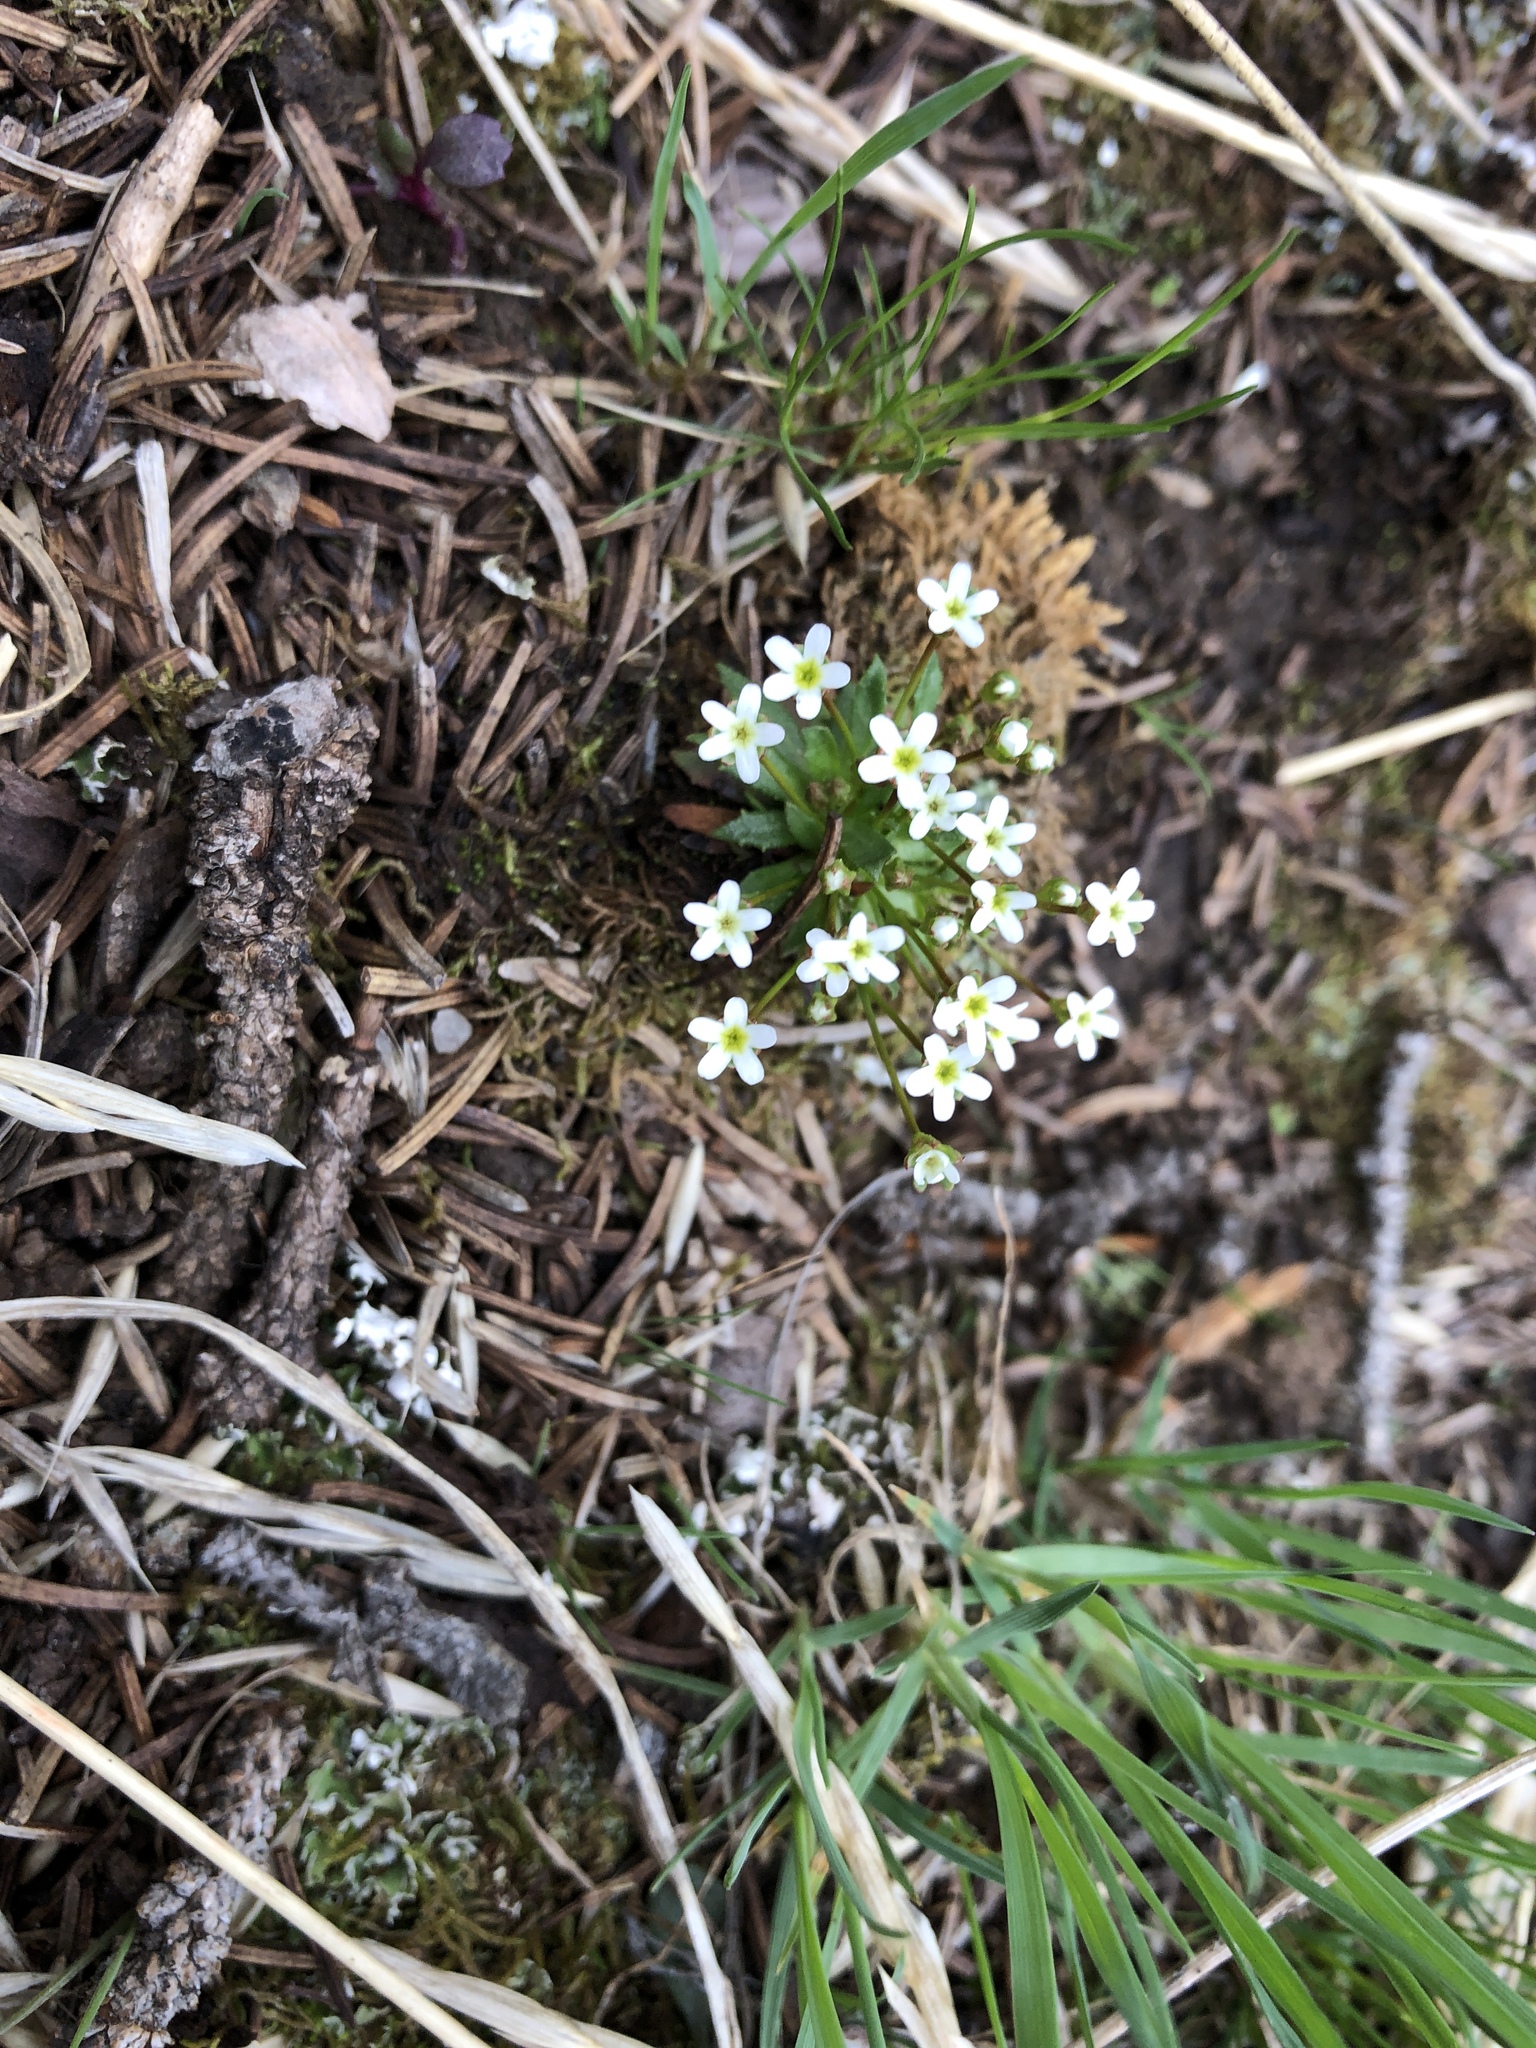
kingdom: Plantae
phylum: Tracheophyta
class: Magnoliopsida
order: Ericales
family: Primulaceae
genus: Androsace
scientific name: Androsace septentrionalis
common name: Hairy northern fairy-candelabra
